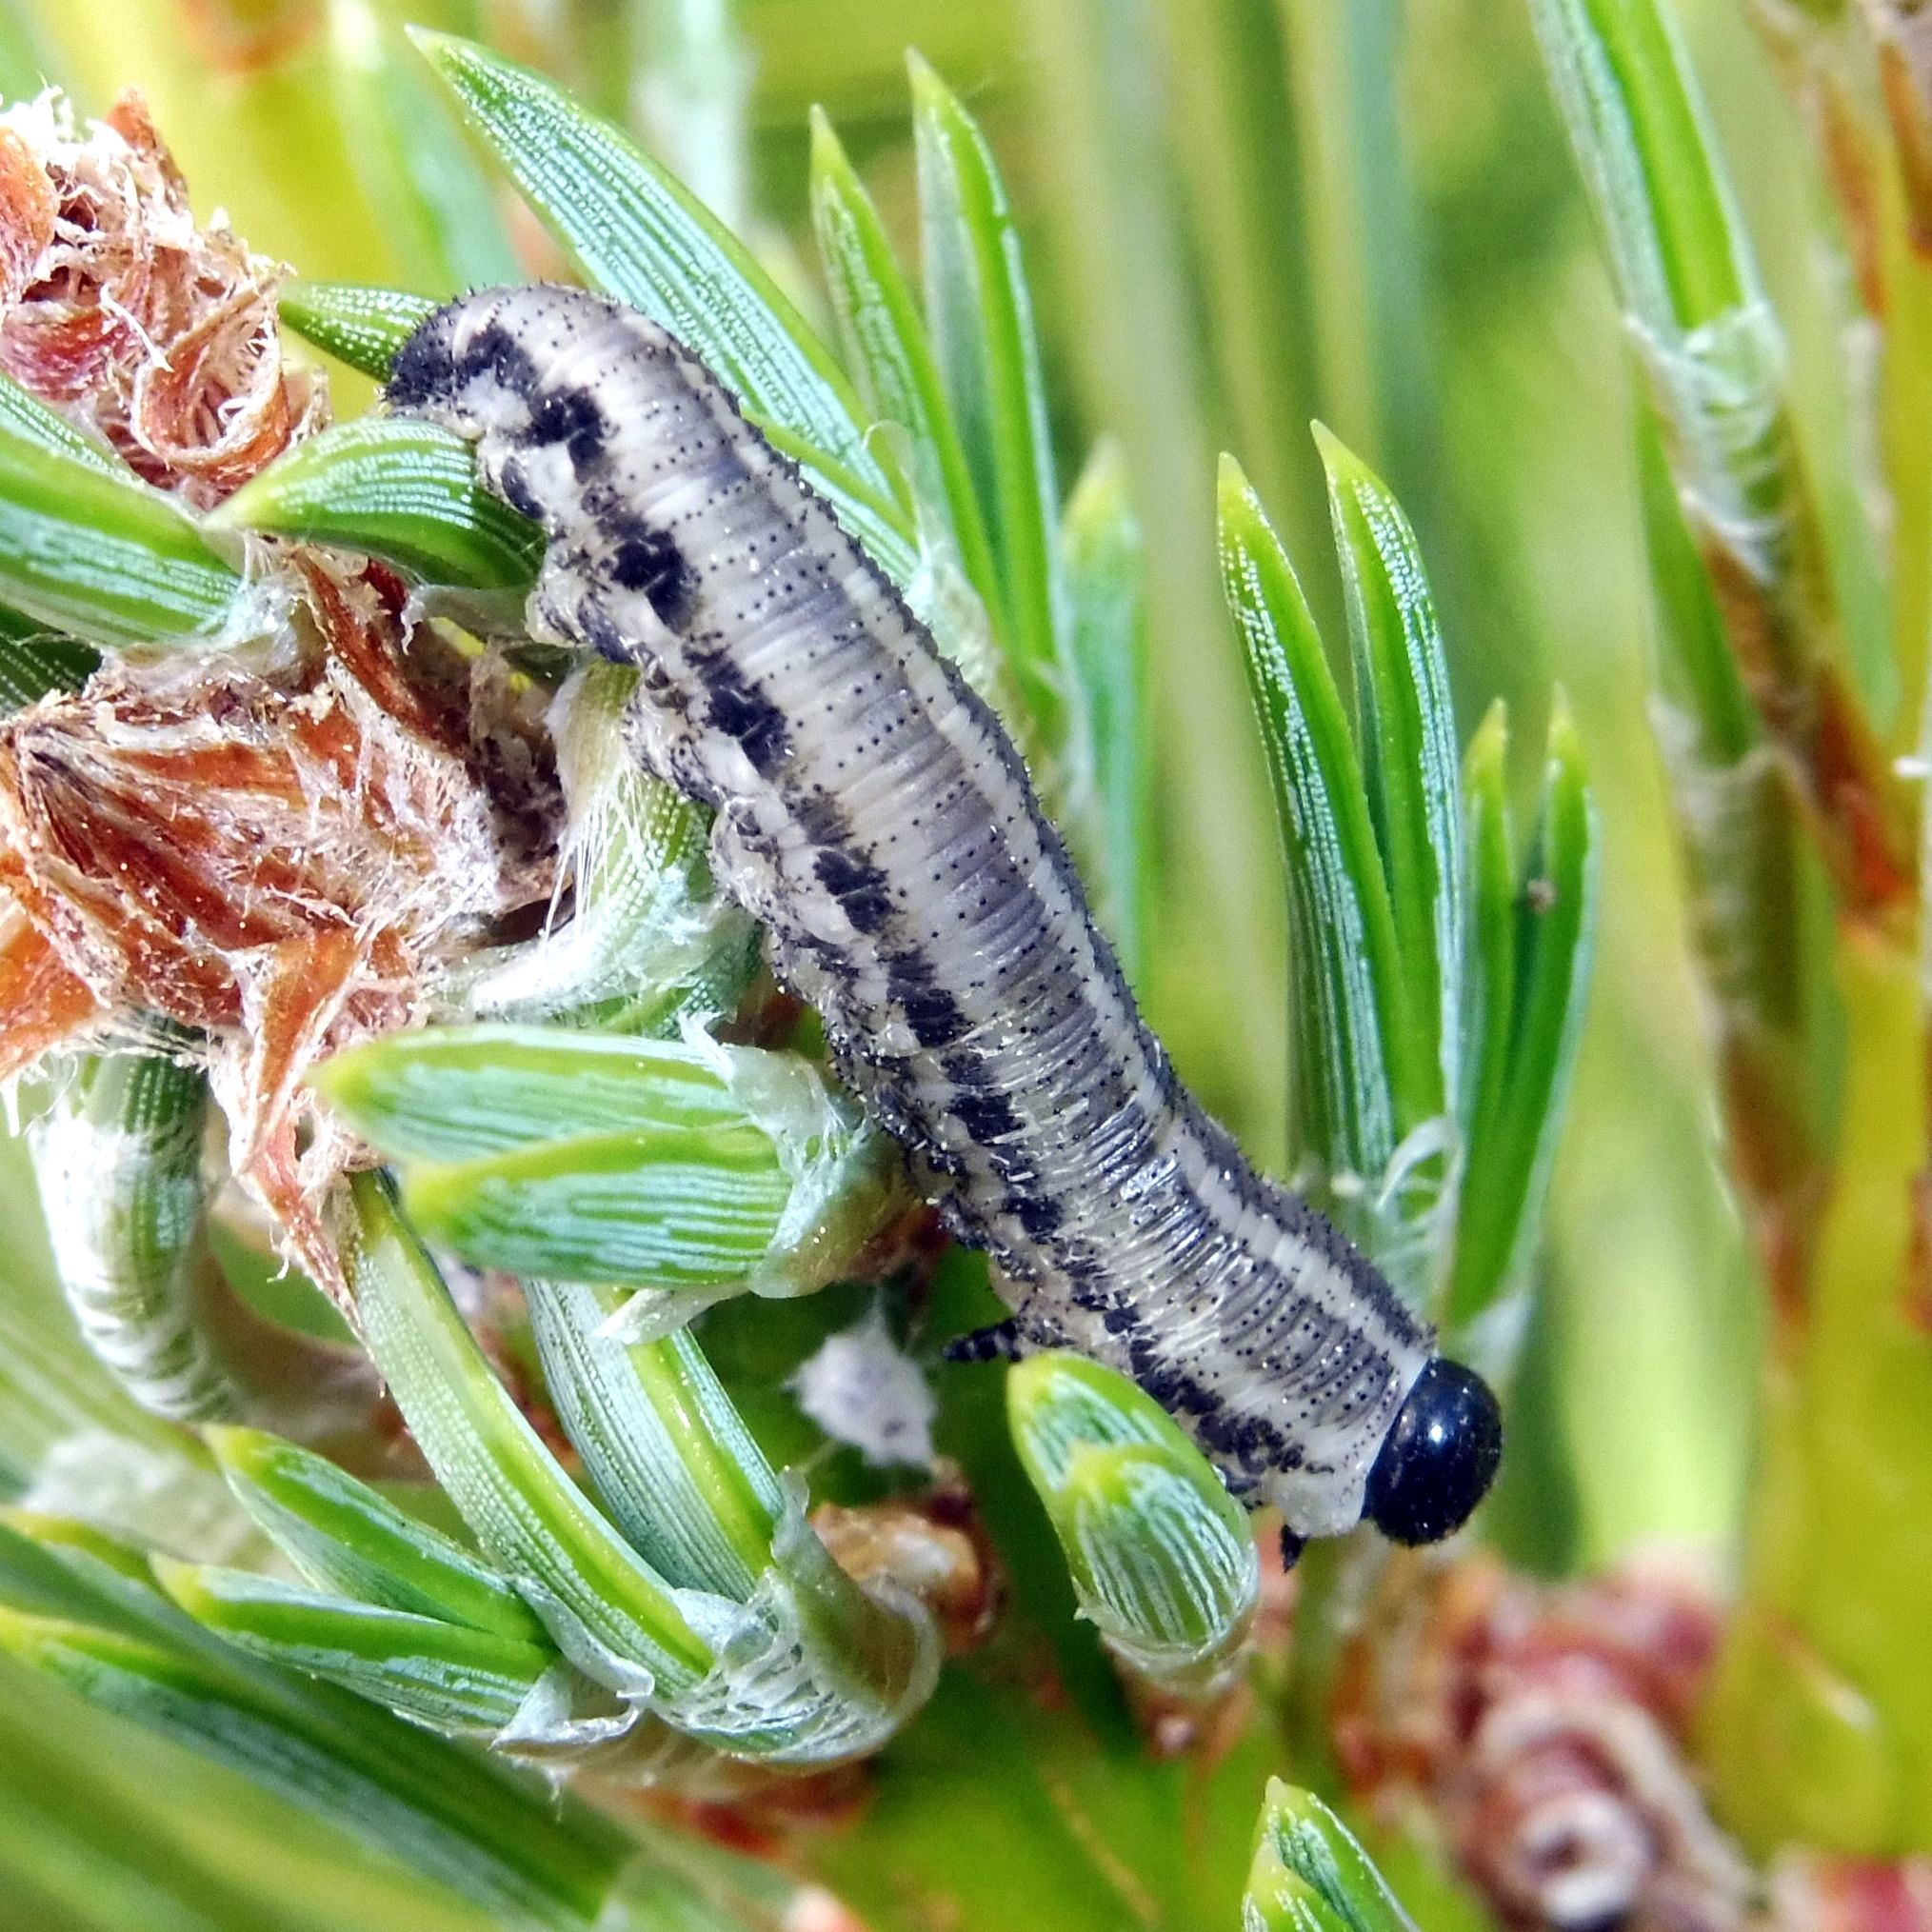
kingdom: Animalia
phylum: Arthropoda
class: Insecta
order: Hymenoptera
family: Diprionidae
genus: Neodiprion
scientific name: Neodiprion sertifer
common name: European pine sawfly
